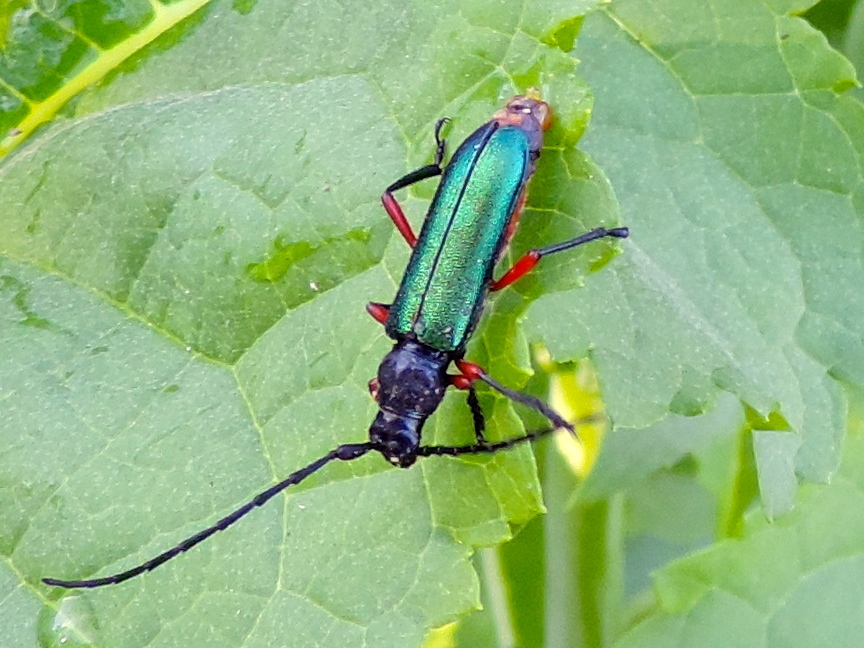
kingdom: Animalia
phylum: Arthropoda
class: Insecta
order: Coleoptera
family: Cerambycidae
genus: Deltaspis
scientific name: Deltaspis rubriventris
